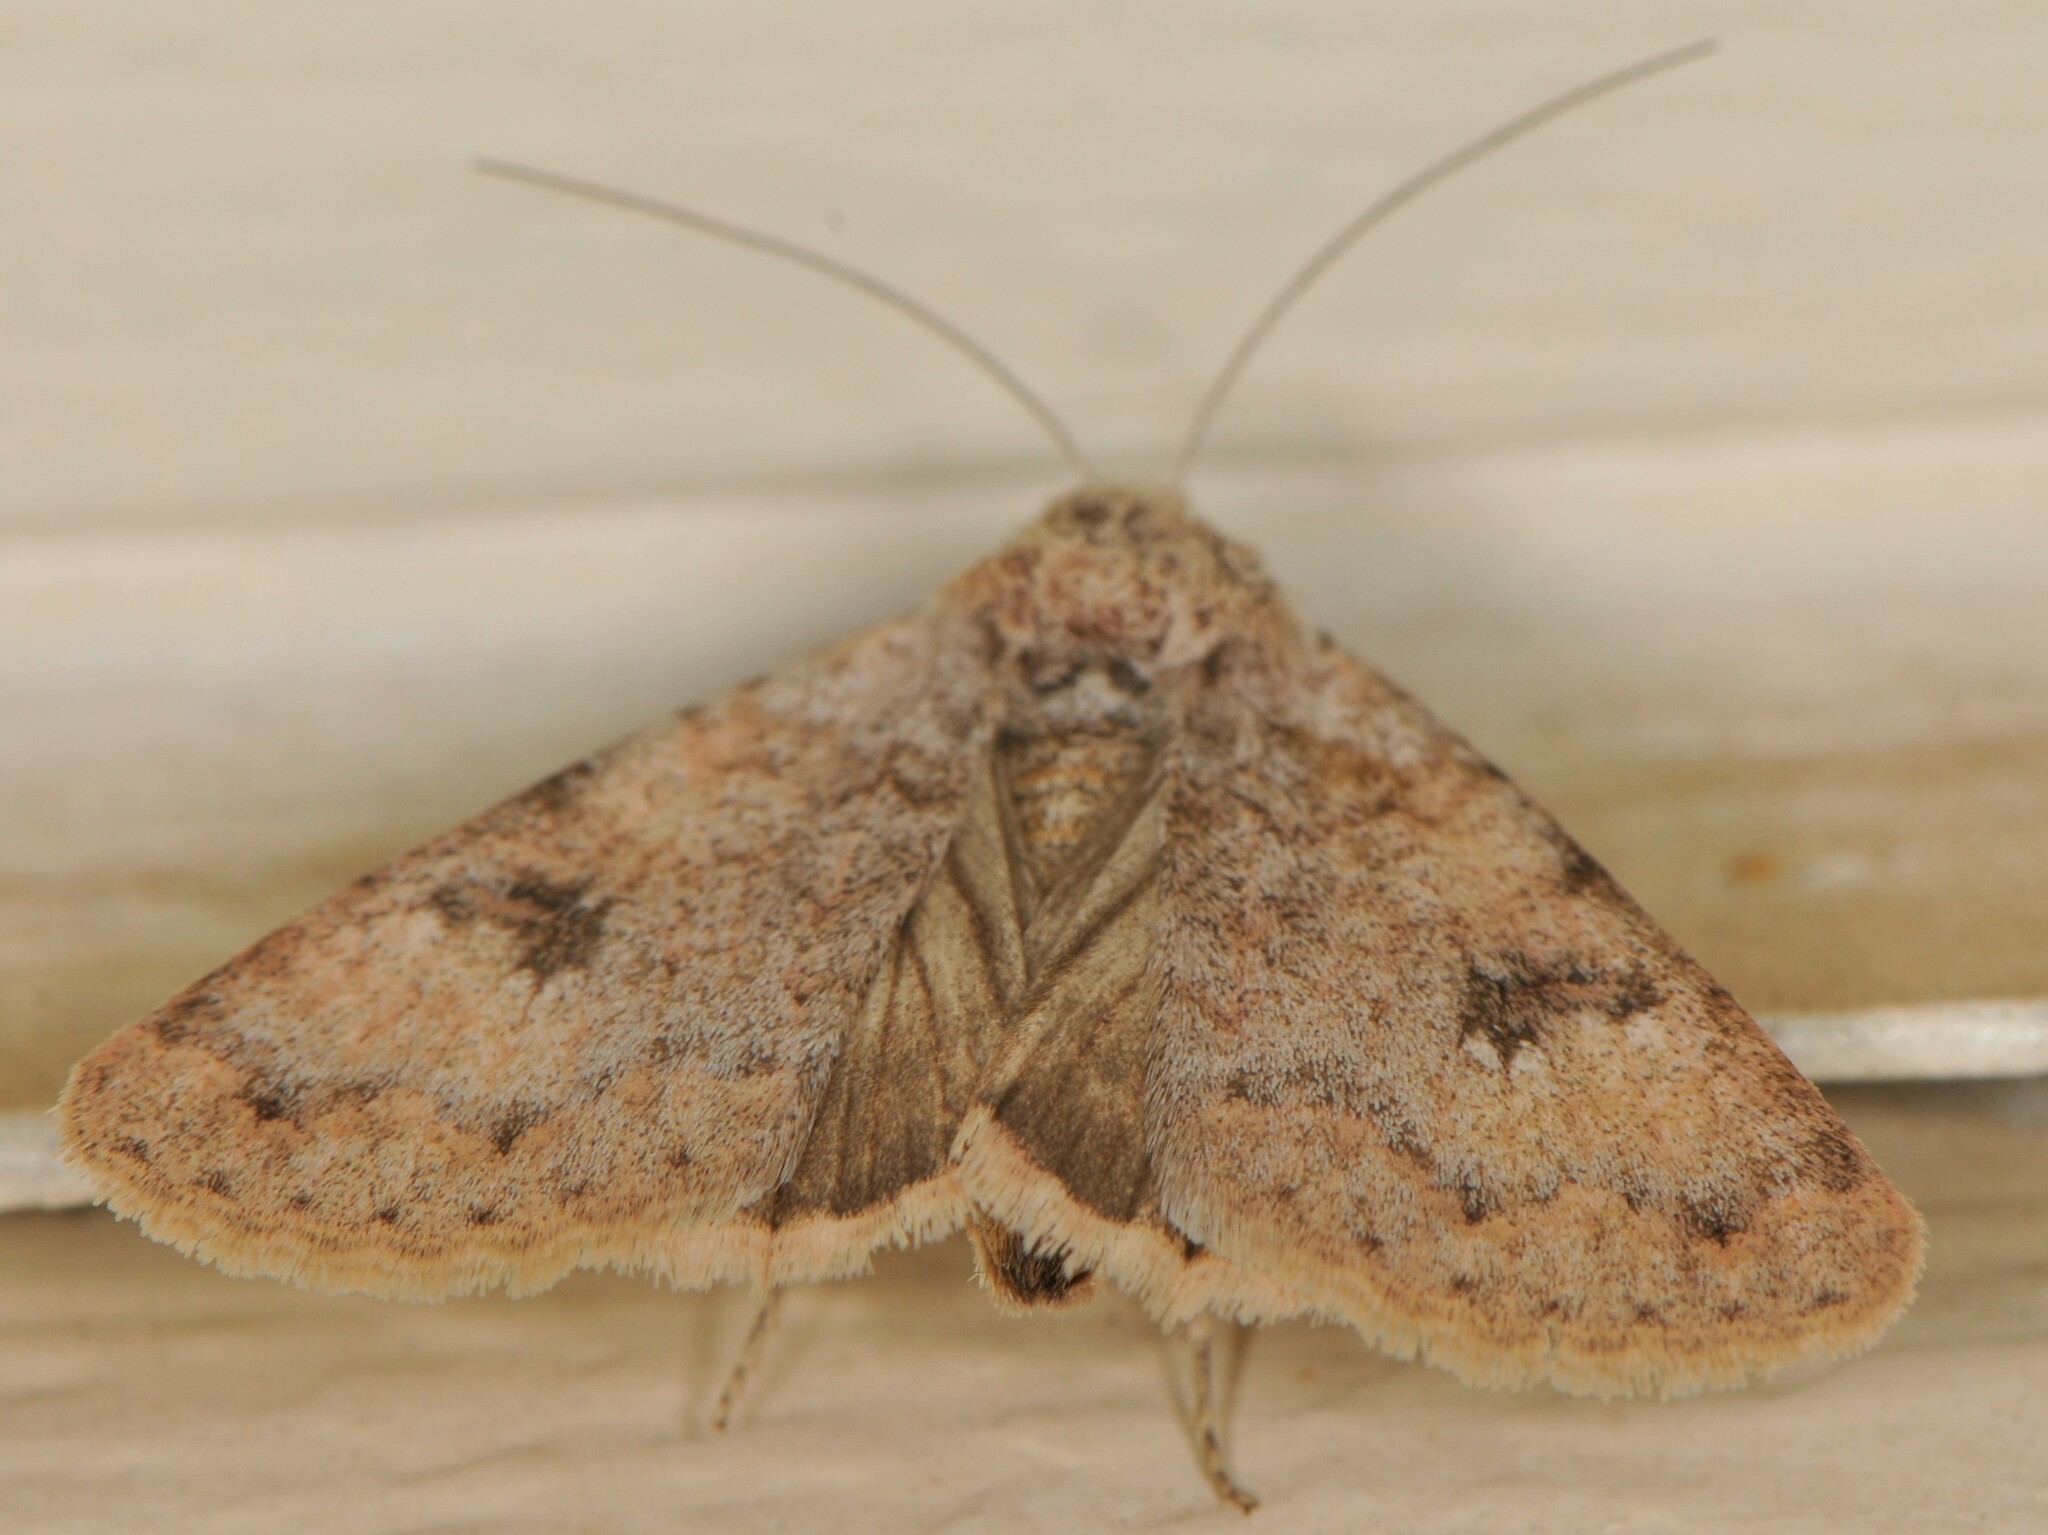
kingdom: Animalia
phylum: Arthropoda
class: Insecta
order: Lepidoptera
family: Erebidae
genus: Drasteria
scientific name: Drasteria inepta
